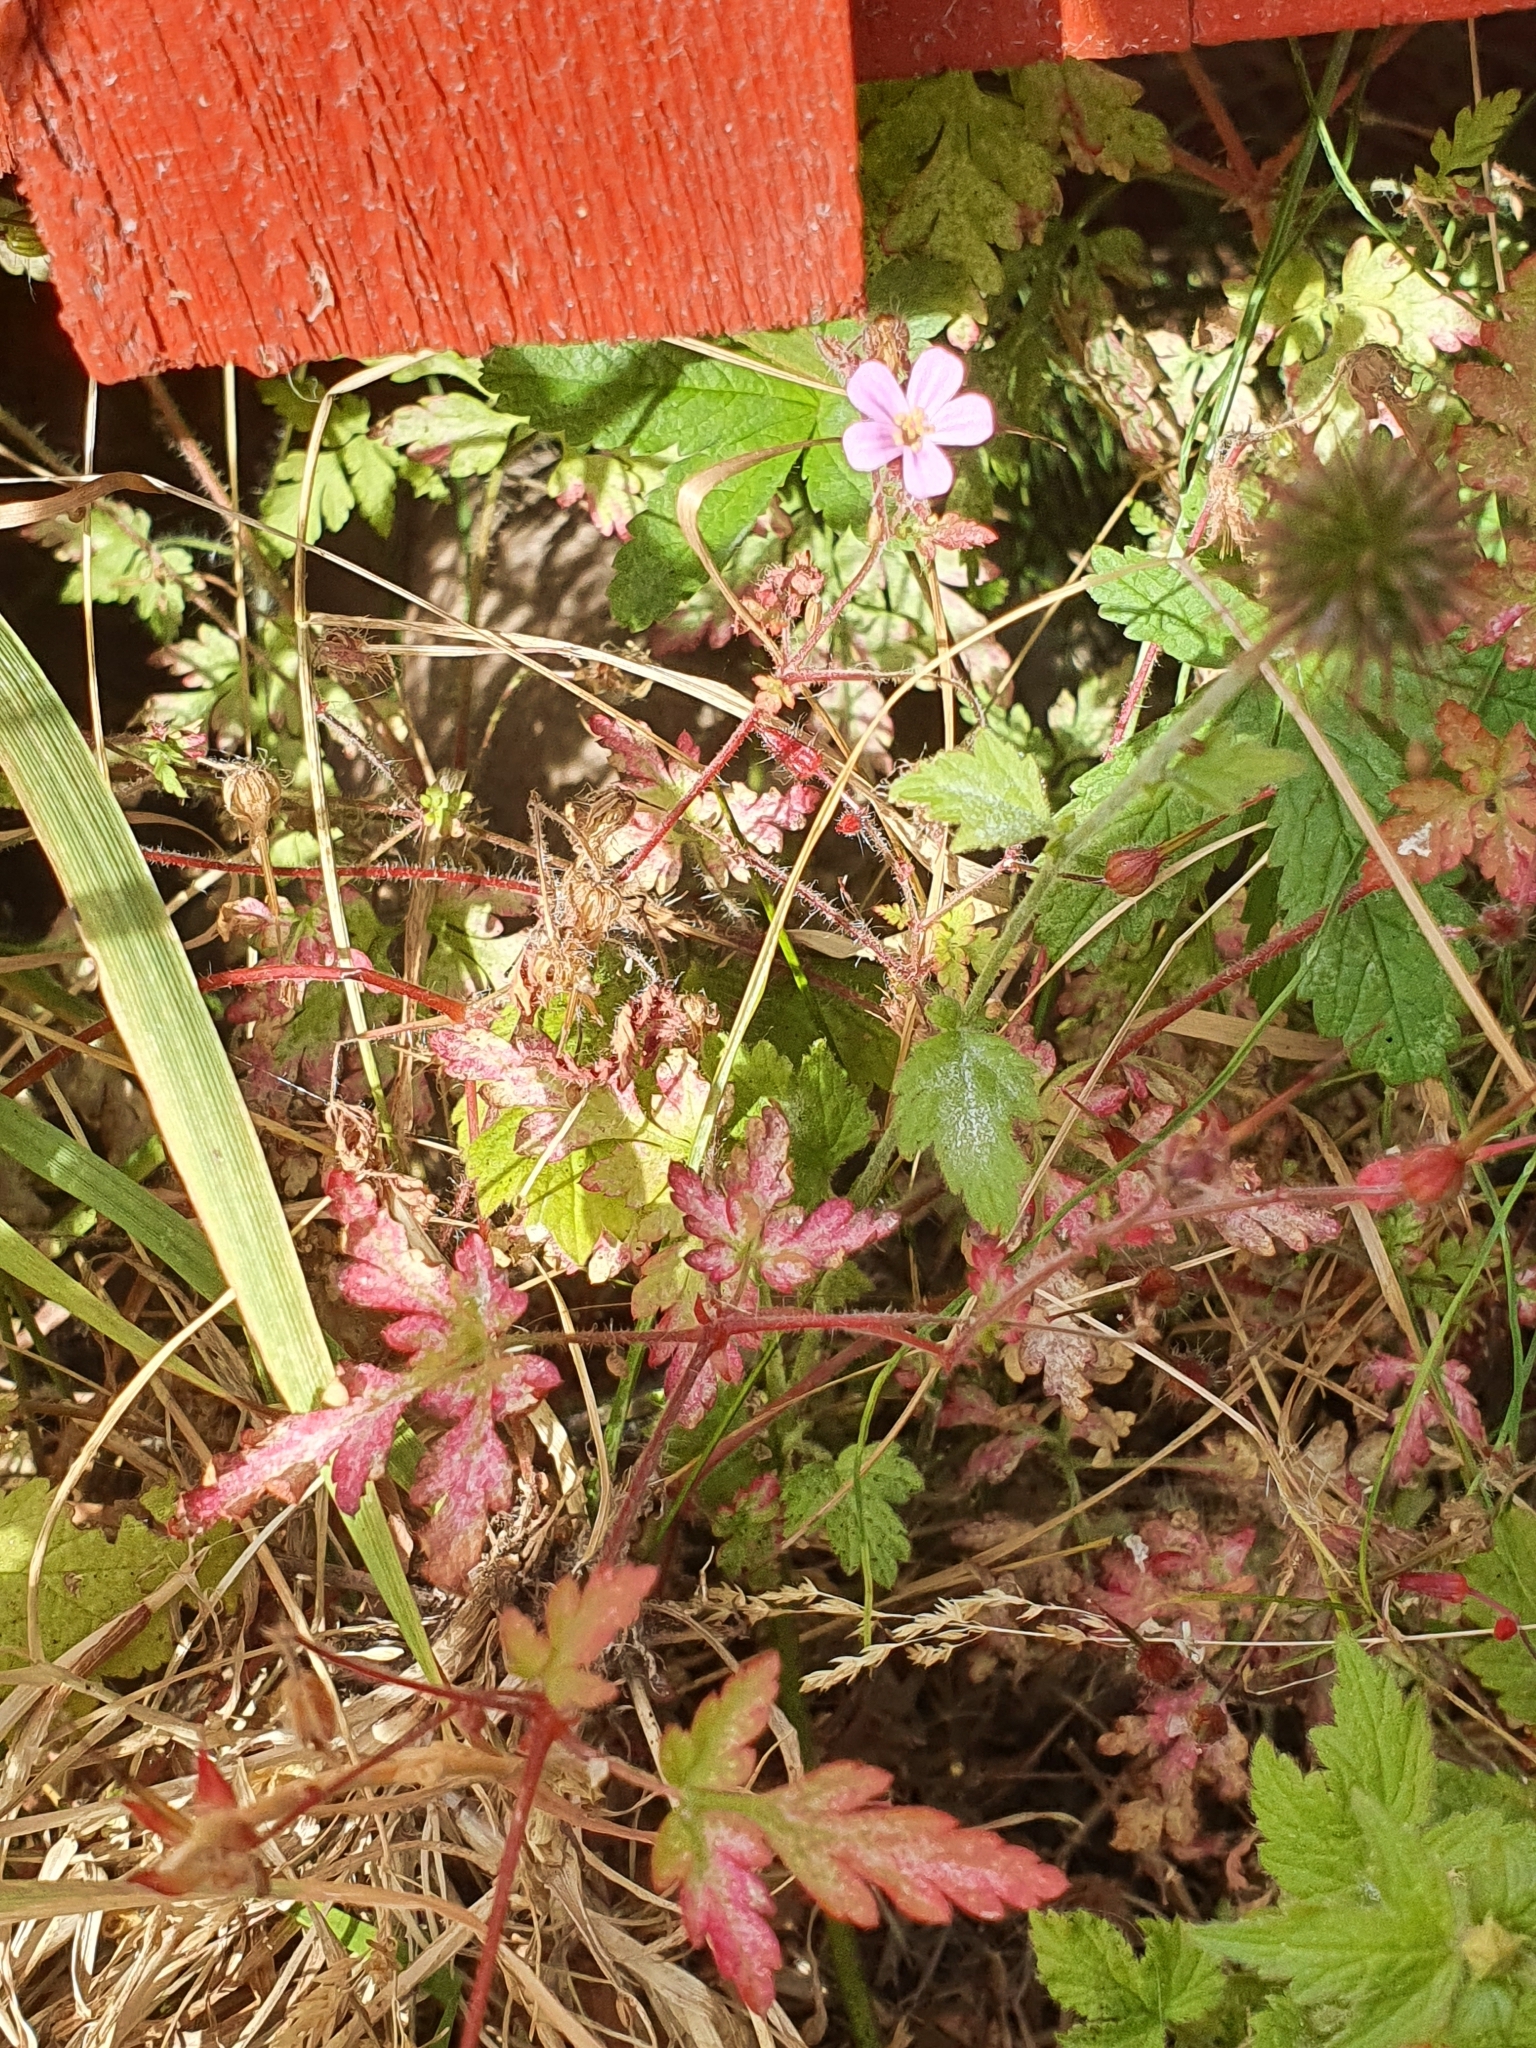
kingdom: Plantae
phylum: Tracheophyta
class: Magnoliopsida
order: Geraniales
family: Geraniaceae
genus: Geranium
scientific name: Geranium robertianum
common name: Herb-robert
